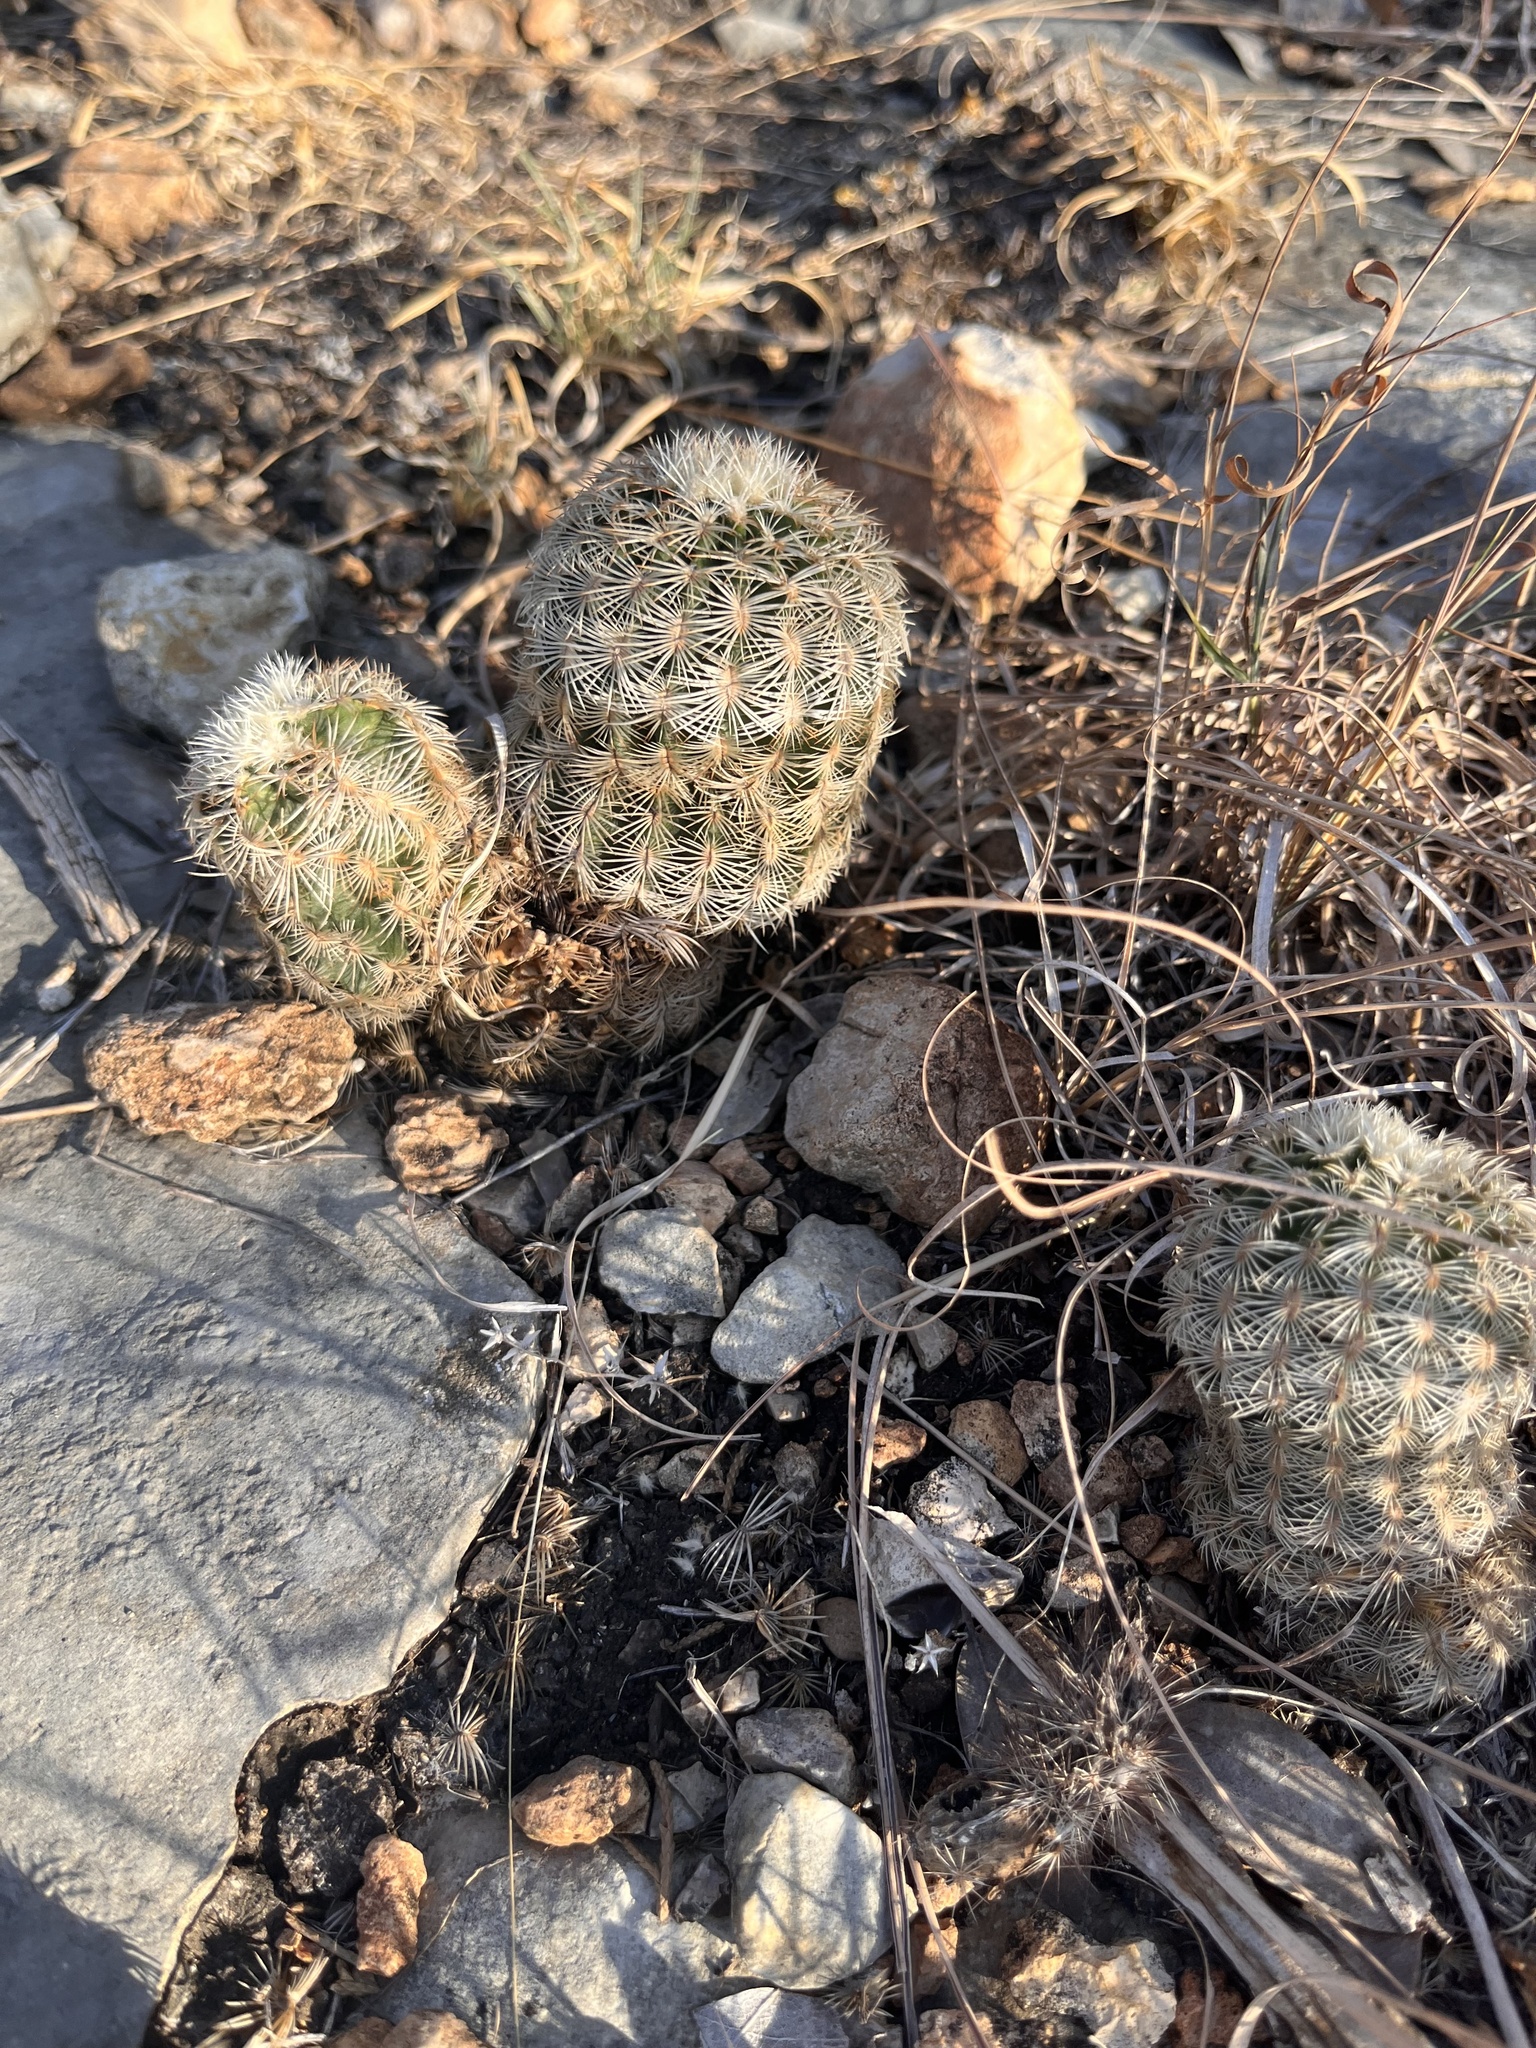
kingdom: Plantae
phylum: Tracheophyta
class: Magnoliopsida
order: Caryophyllales
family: Cactaceae
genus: Echinocereus
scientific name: Echinocereus reichenbachii
